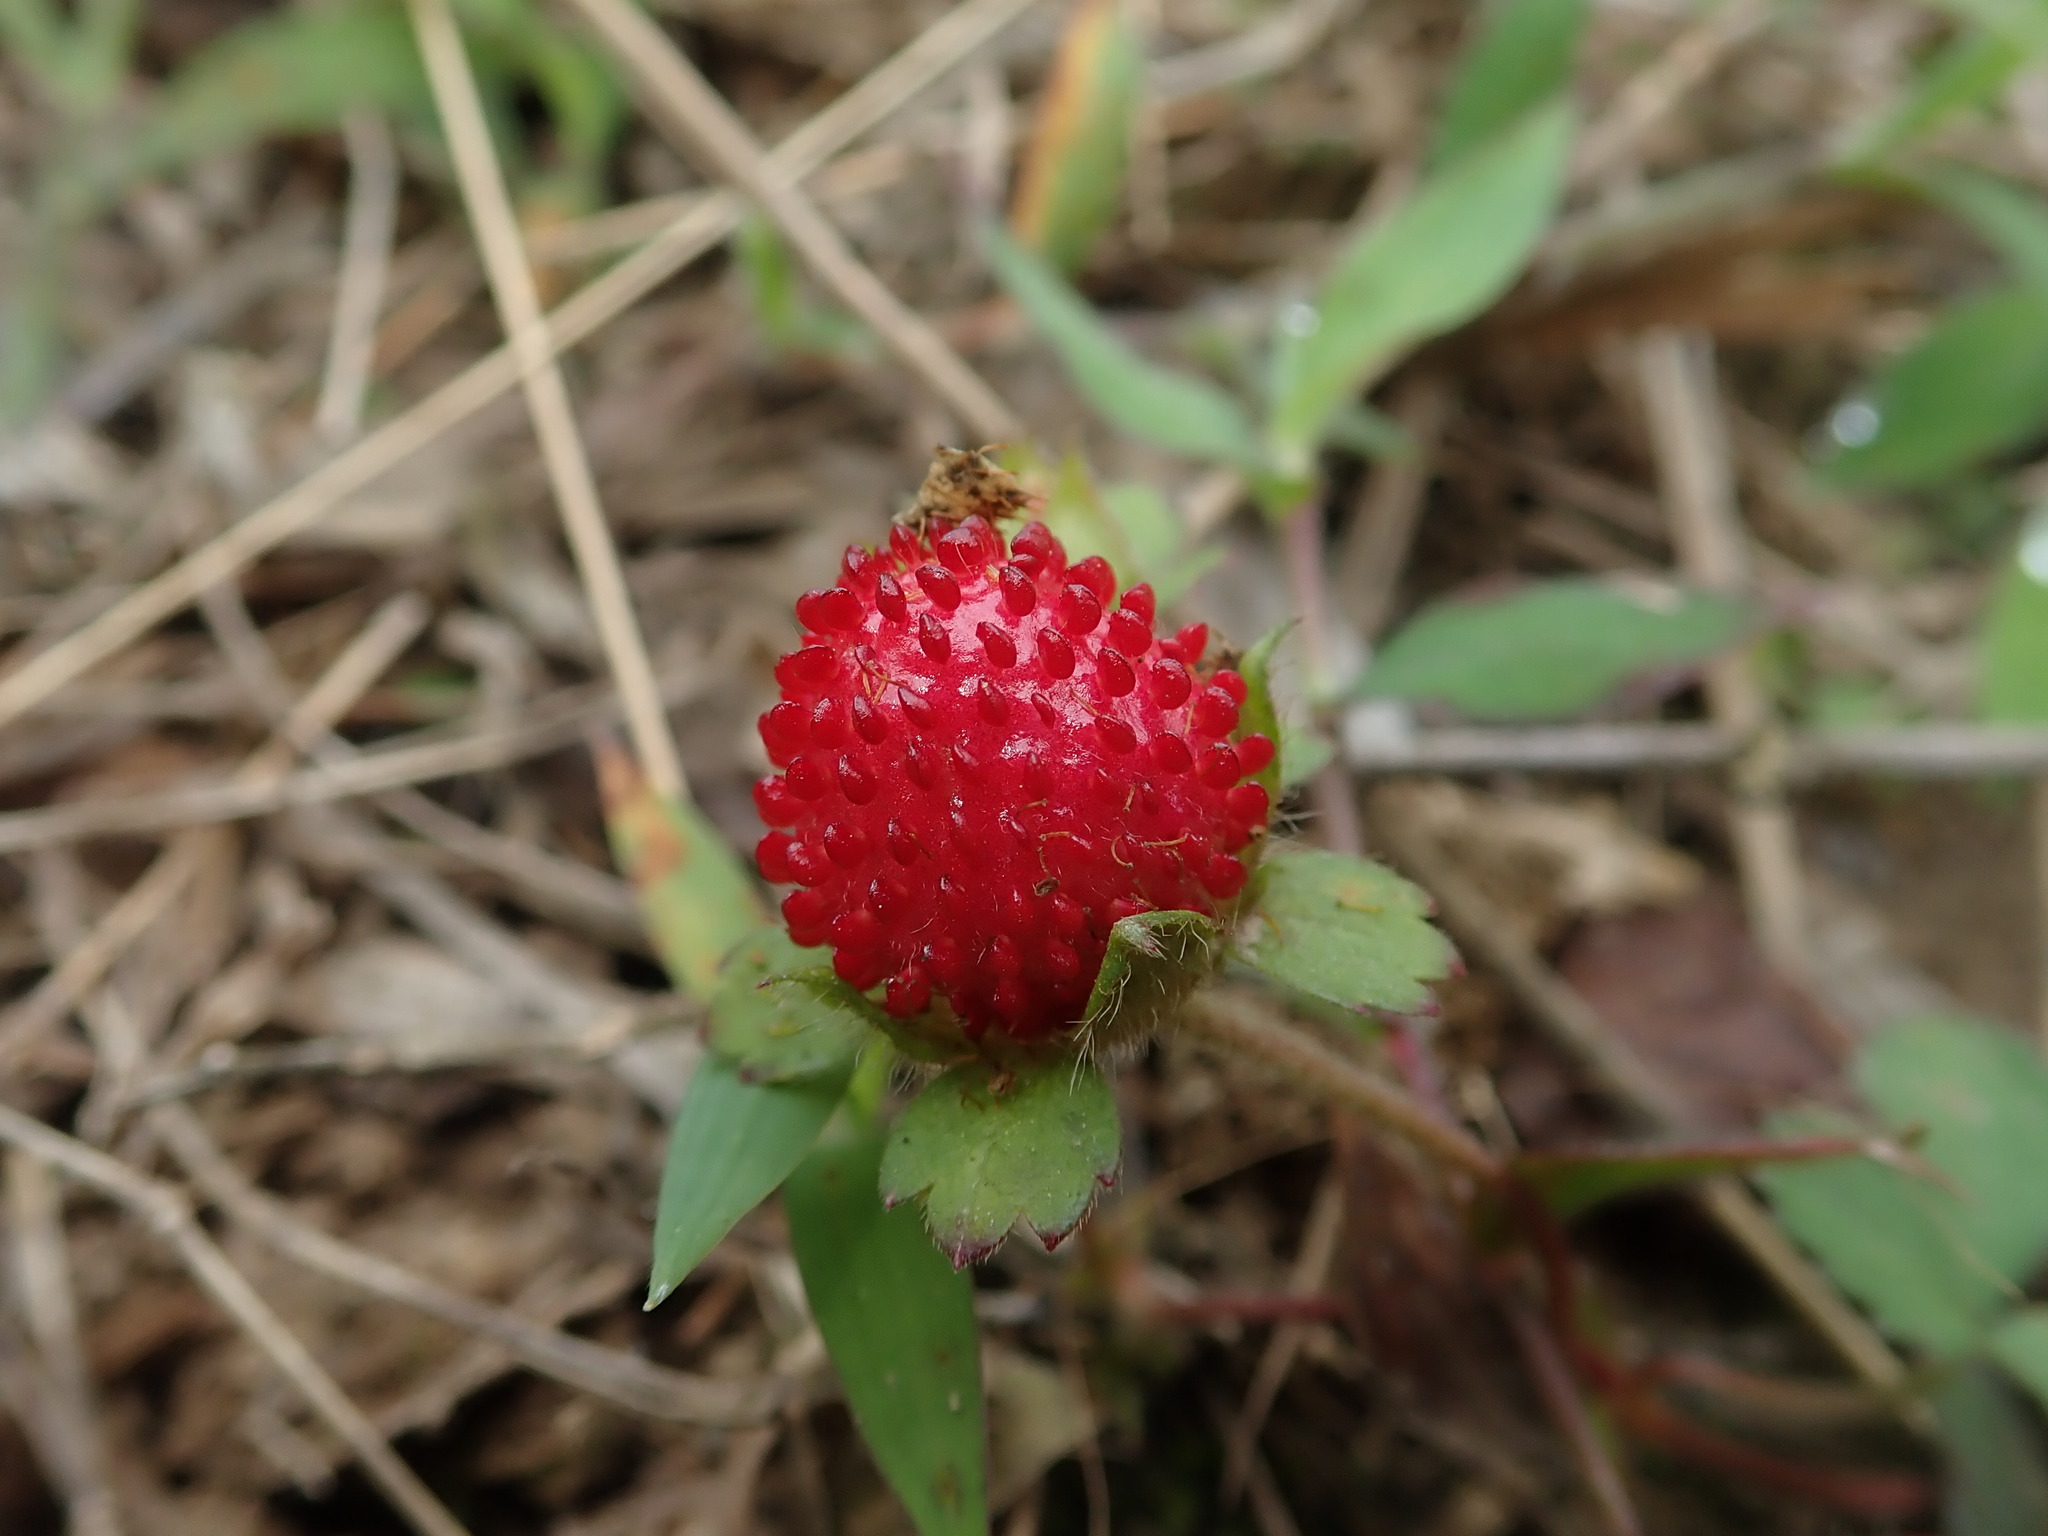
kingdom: Plantae
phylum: Tracheophyta
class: Magnoliopsida
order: Rosales
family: Rosaceae
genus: Potentilla
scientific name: Potentilla indica
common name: Yellow-flowered strawberry
